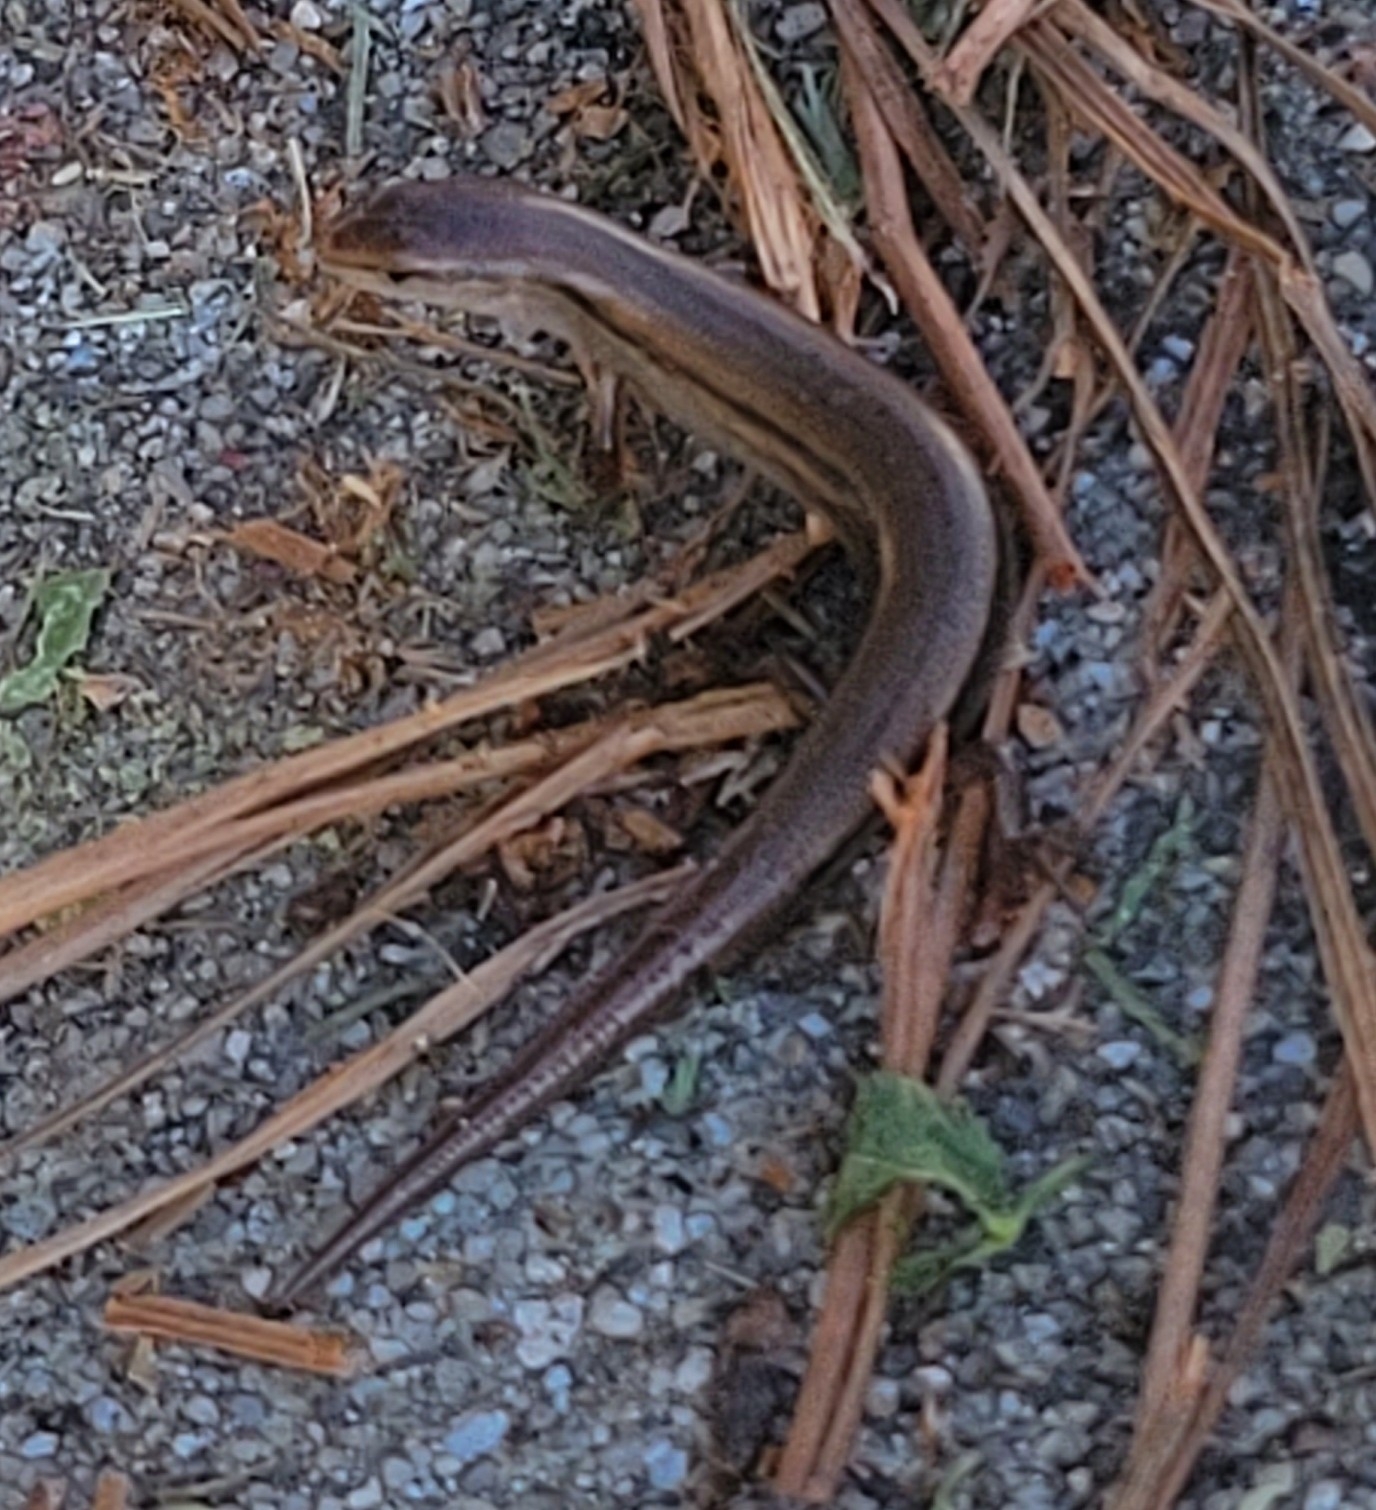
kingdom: Animalia
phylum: Chordata
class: Squamata
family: Scincidae
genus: Scincella
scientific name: Scincella lateralis
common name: Ground skink
